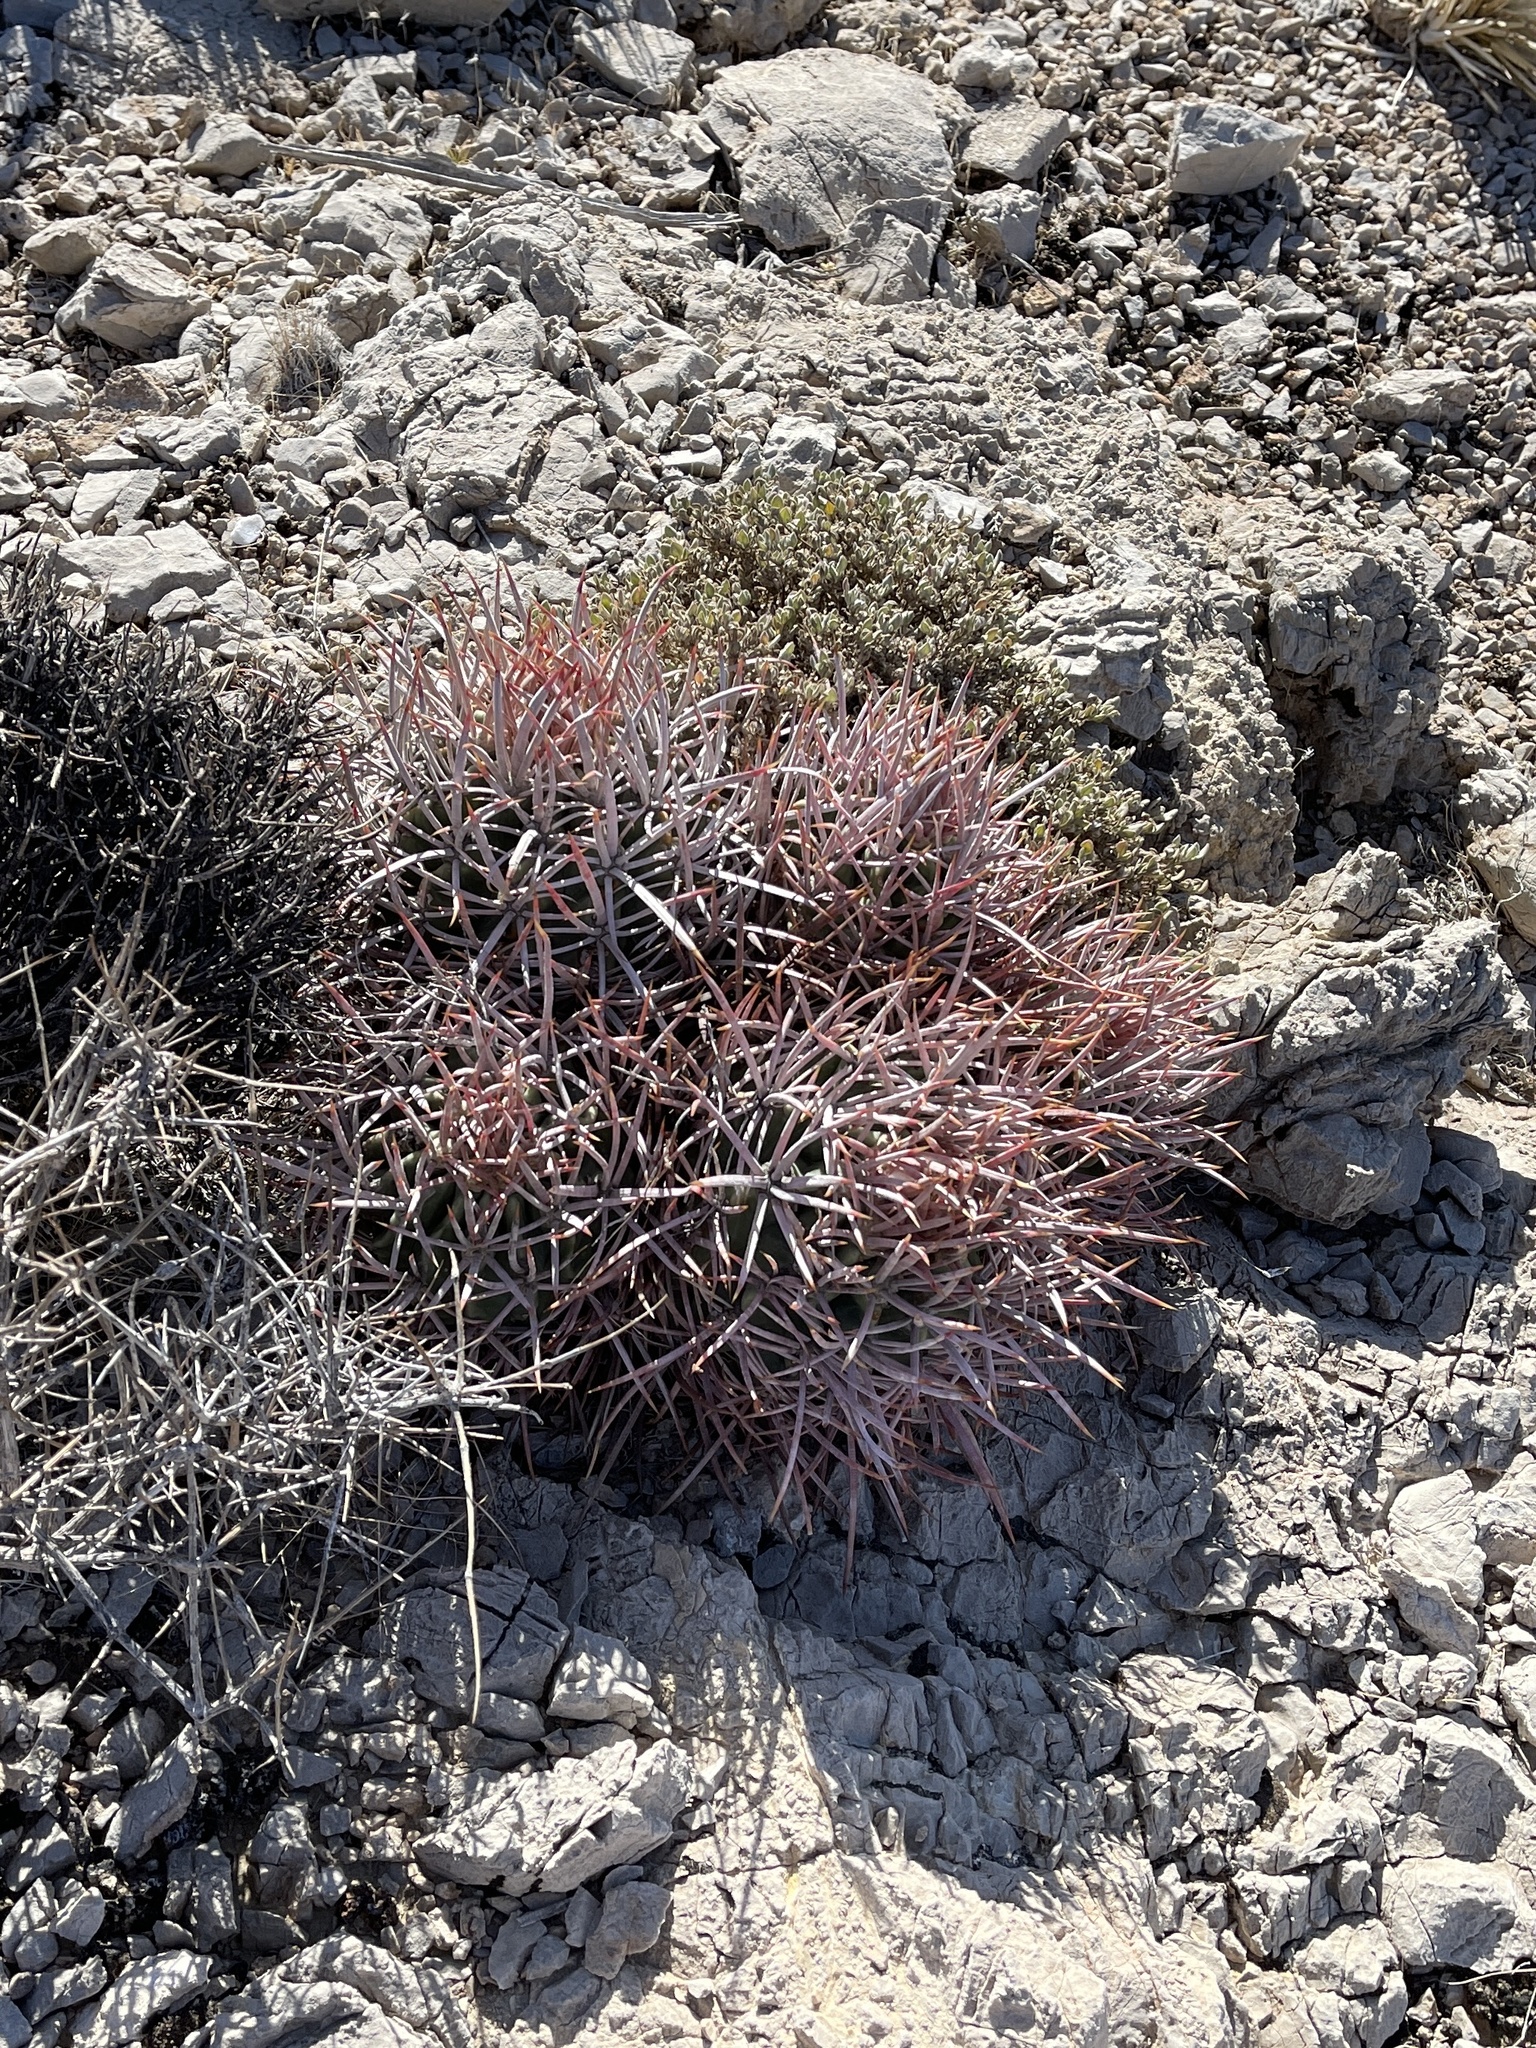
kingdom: Plantae
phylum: Tracheophyta
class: Magnoliopsida
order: Caryophyllales
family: Cactaceae
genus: Echinocactus
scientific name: Echinocactus polycephalus
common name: Cottontop cactus
